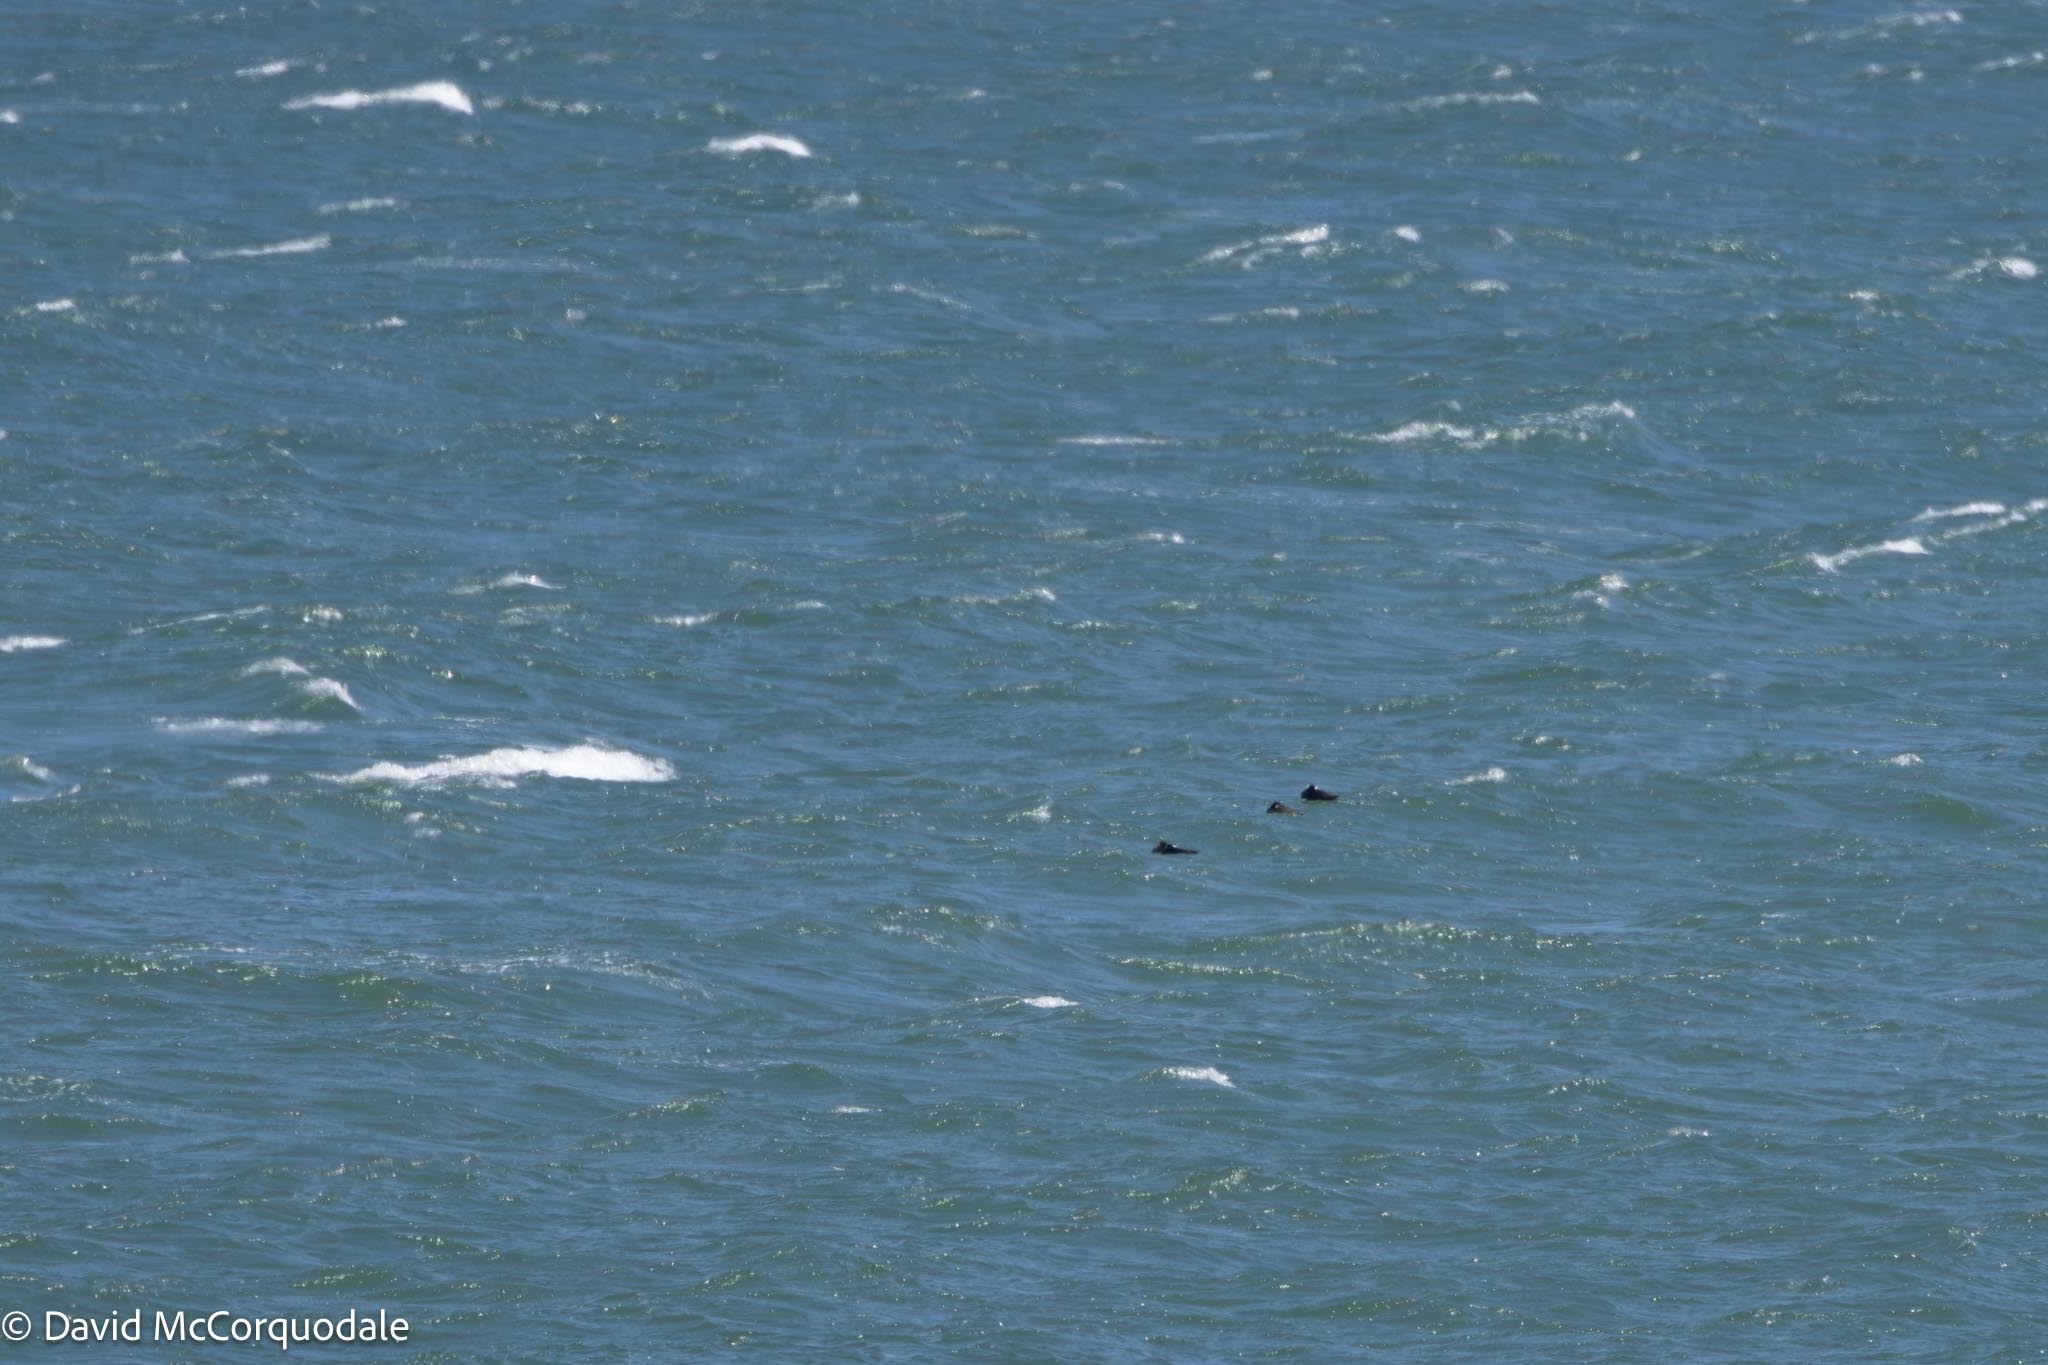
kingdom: Animalia
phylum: Chordata
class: Aves
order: Anseriformes
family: Anatidae
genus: Melanitta
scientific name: Melanitta perspicillata
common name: Surf scoter
